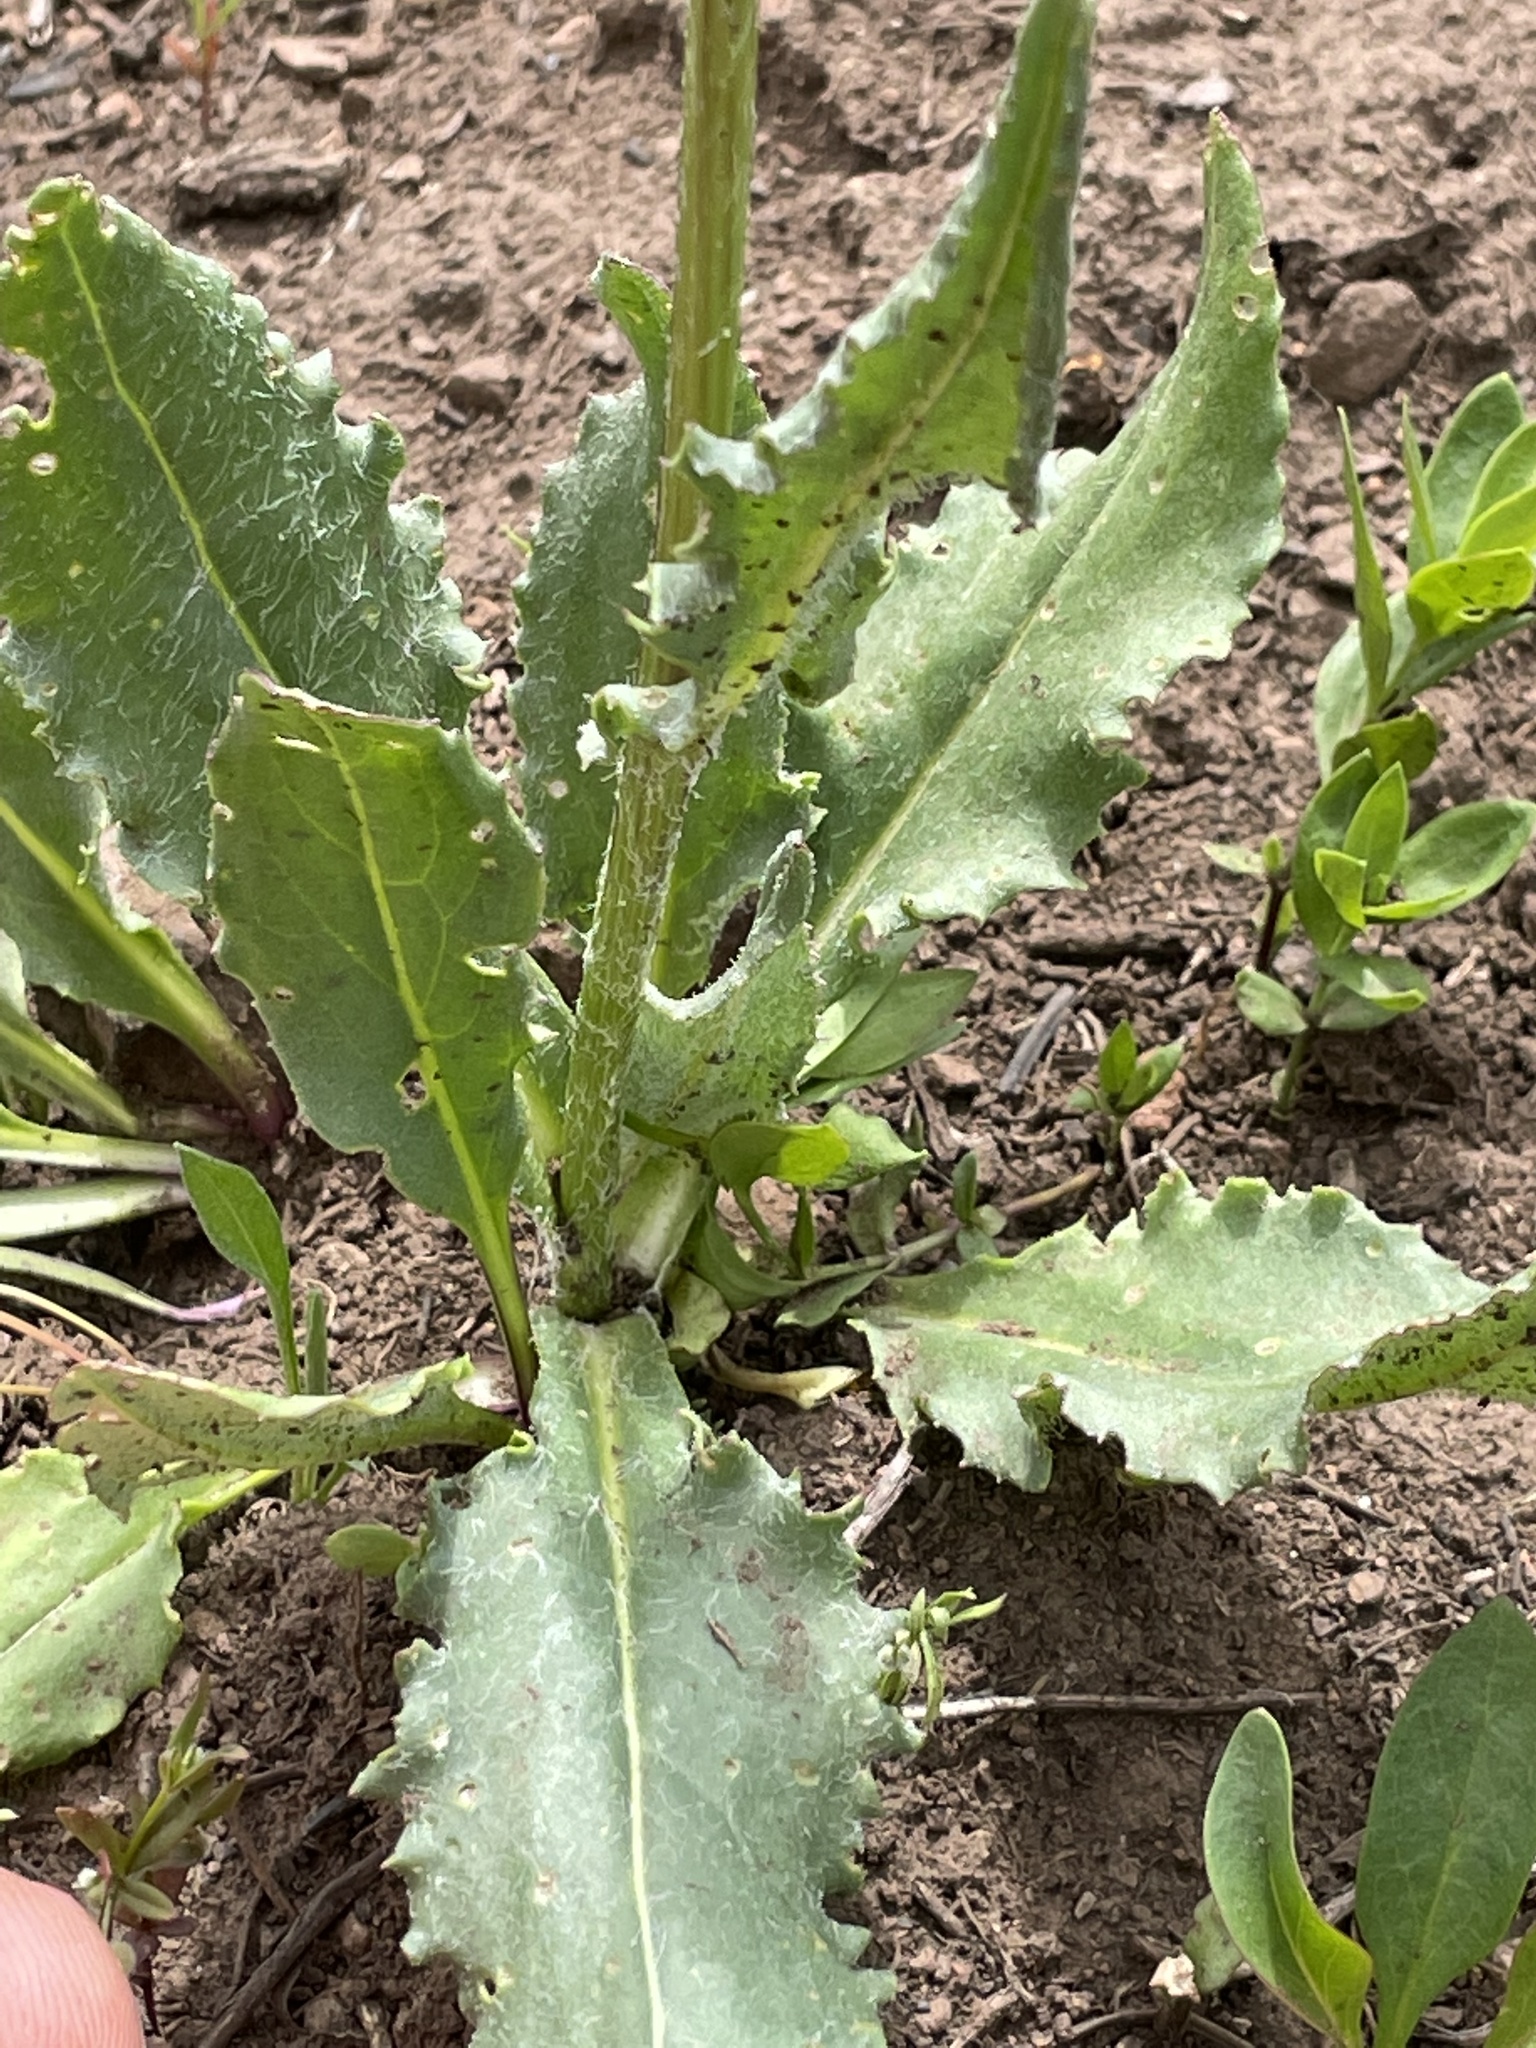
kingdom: Plantae
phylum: Tracheophyta
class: Magnoliopsida
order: Asterales
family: Asteraceae
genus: Senecio
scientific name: Senecio integerrimus
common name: Gaugeplant
